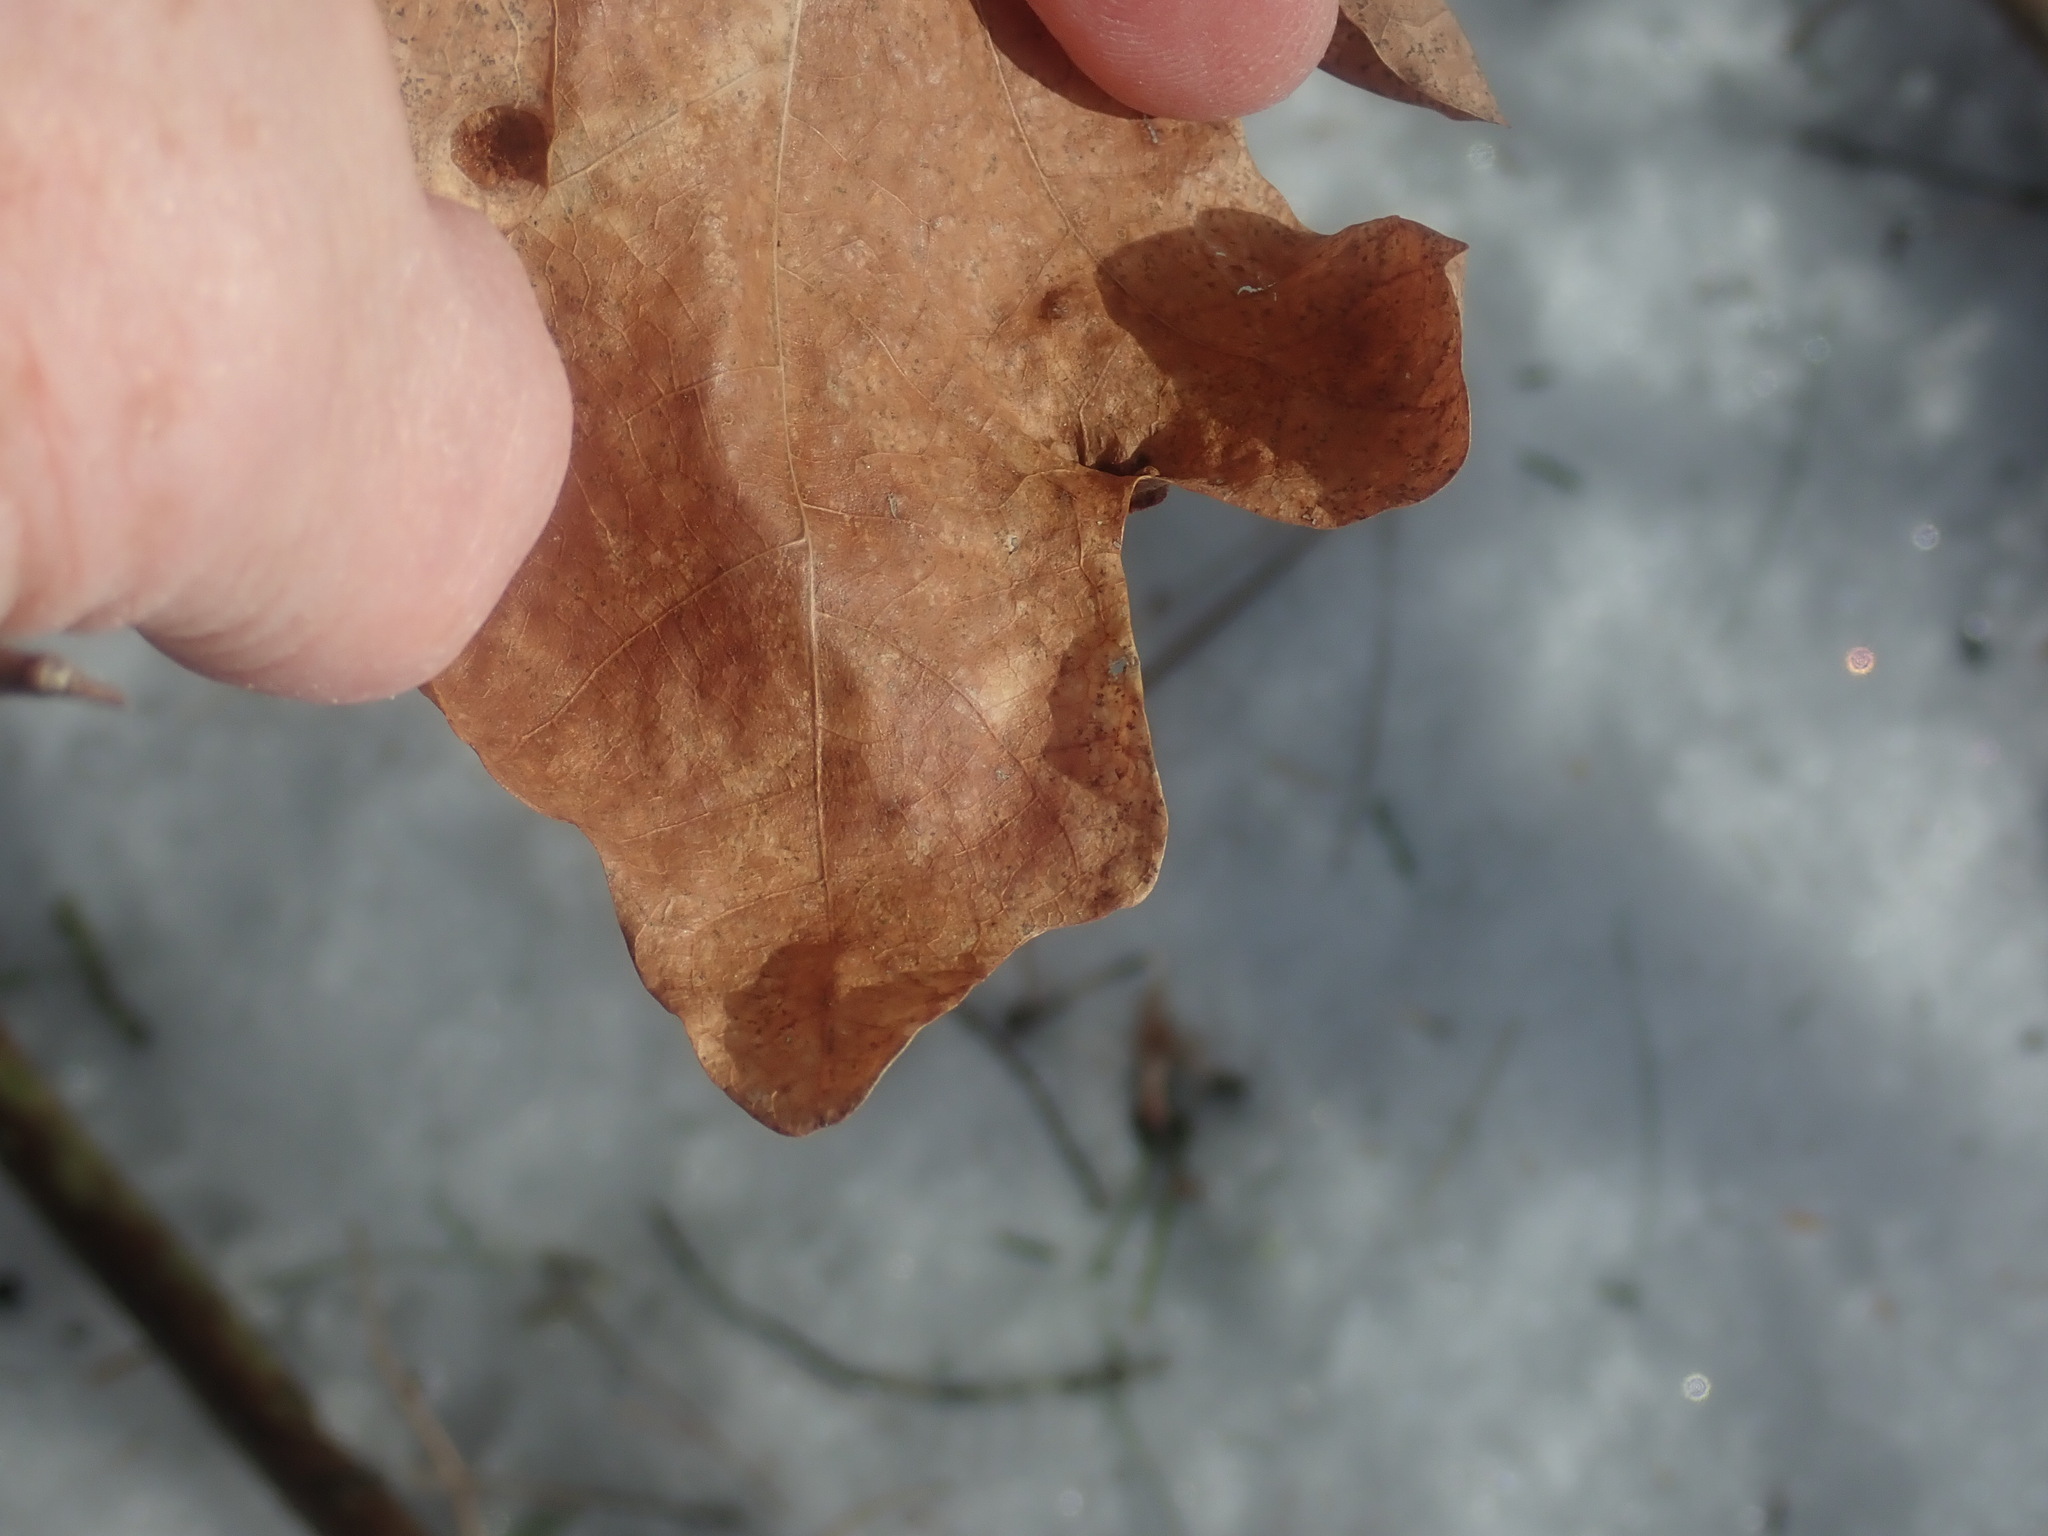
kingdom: Animalia
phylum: Arthropoda
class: Insecta
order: Hymenoptera
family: Cynipidae
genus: Callirhytis
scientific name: Callirhytis clavula
